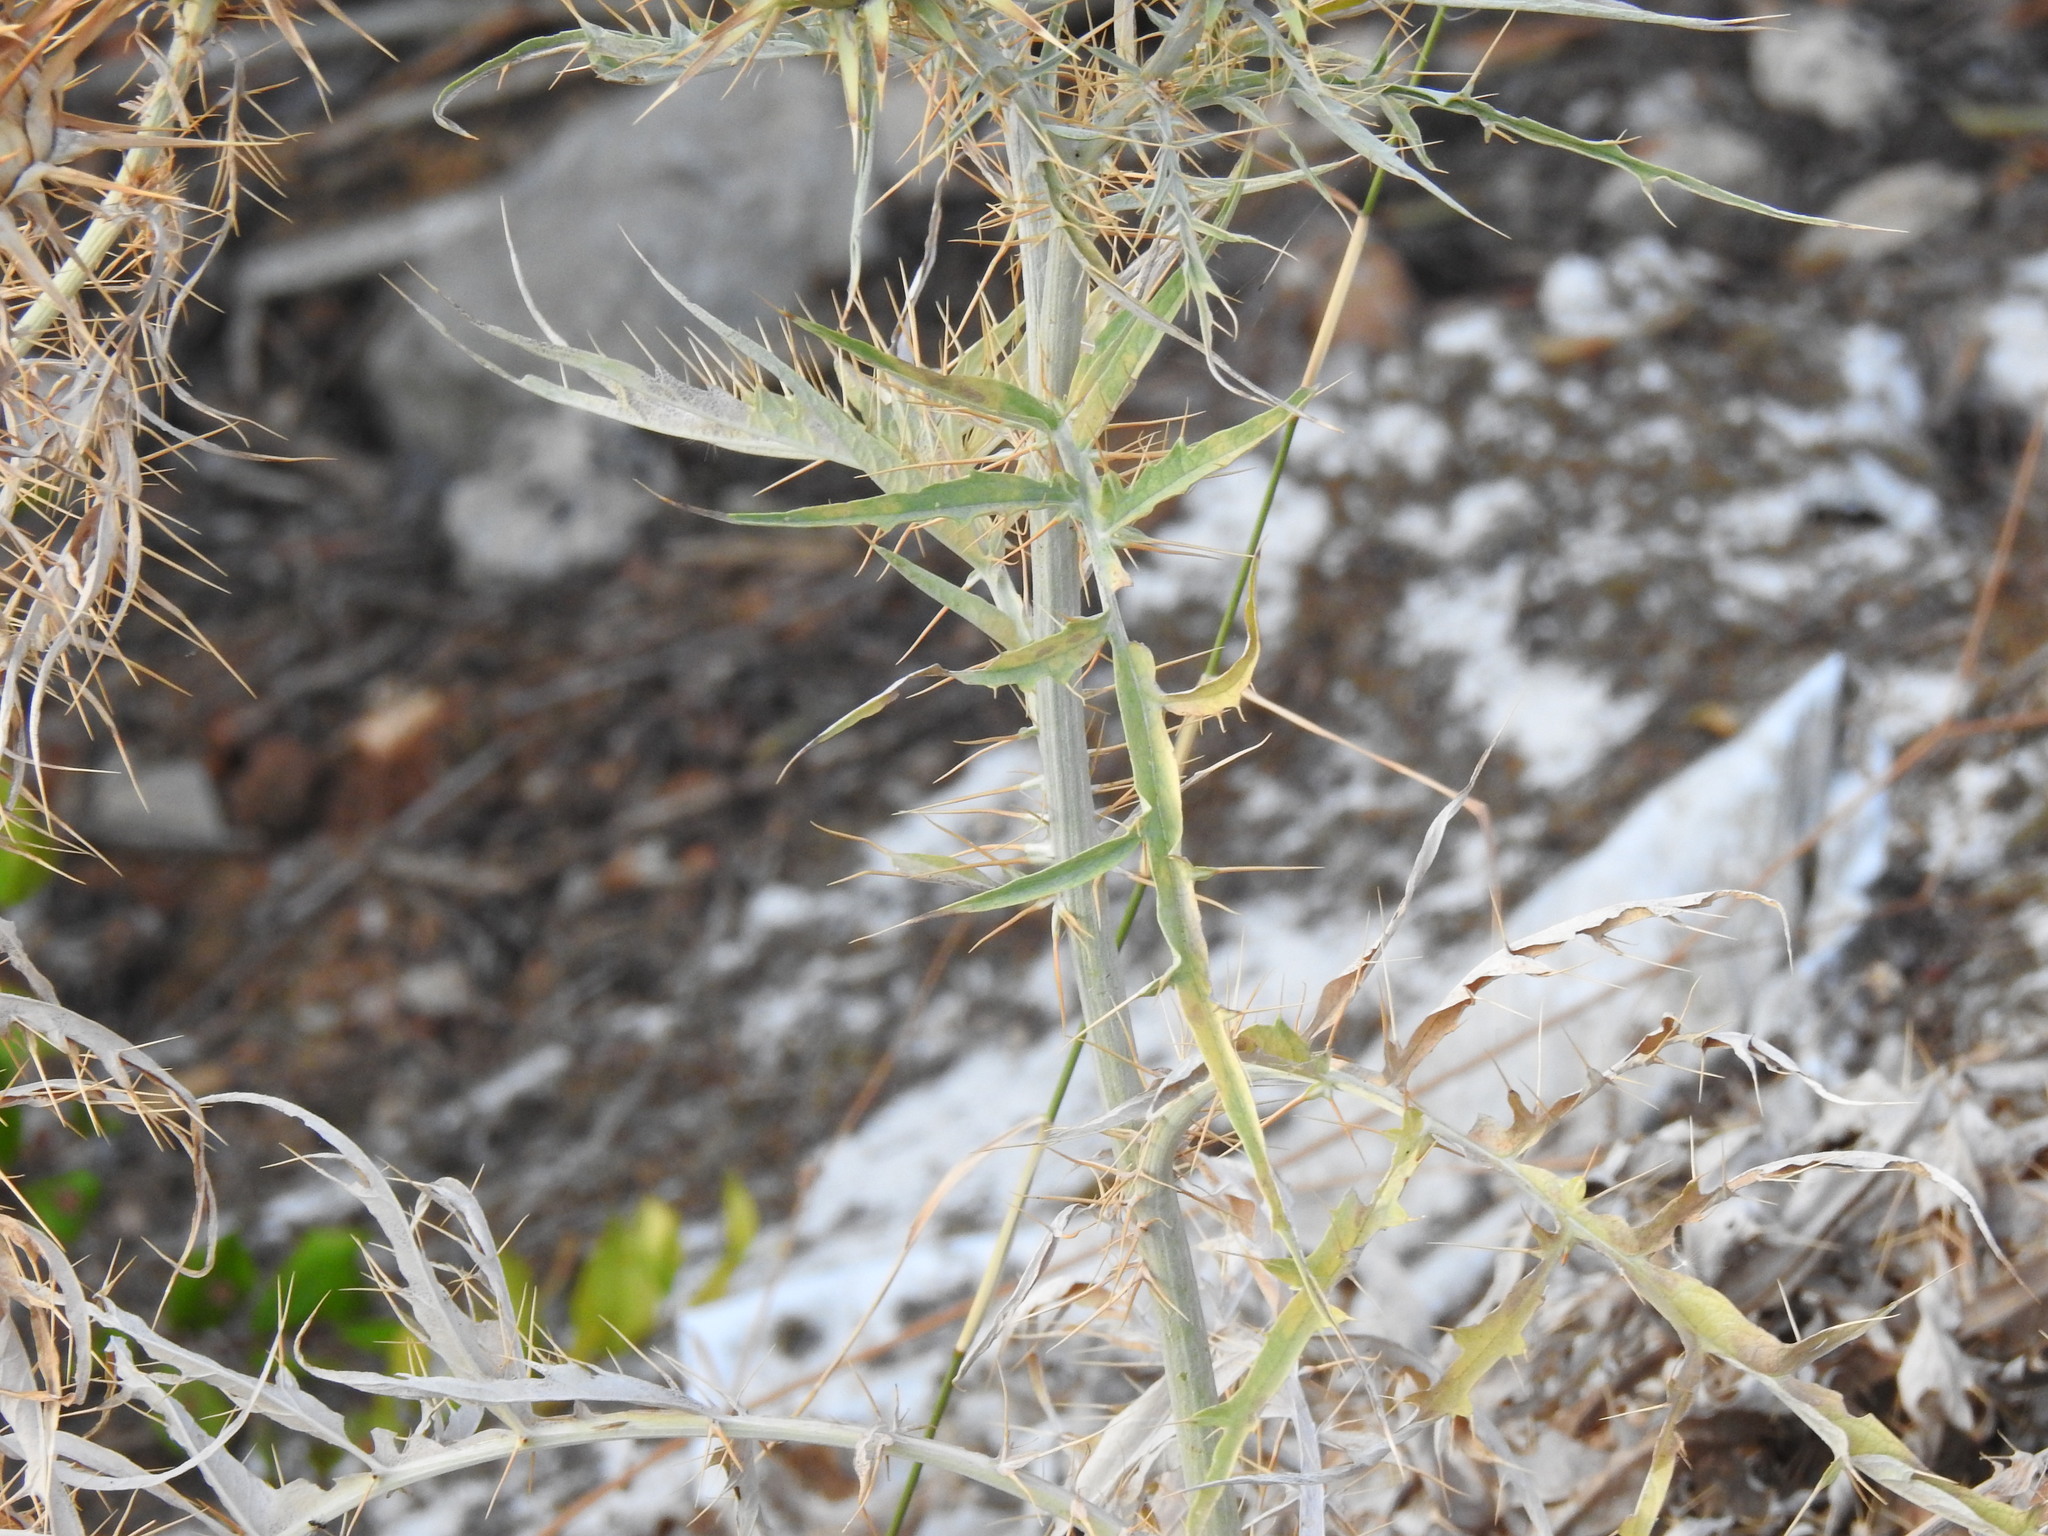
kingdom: Plantae
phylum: Tracheophyta
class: Magnoliopsida
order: Asterales
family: Asteraceae
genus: Cynara
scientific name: Cynara cardunculus
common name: Globe artichoke
